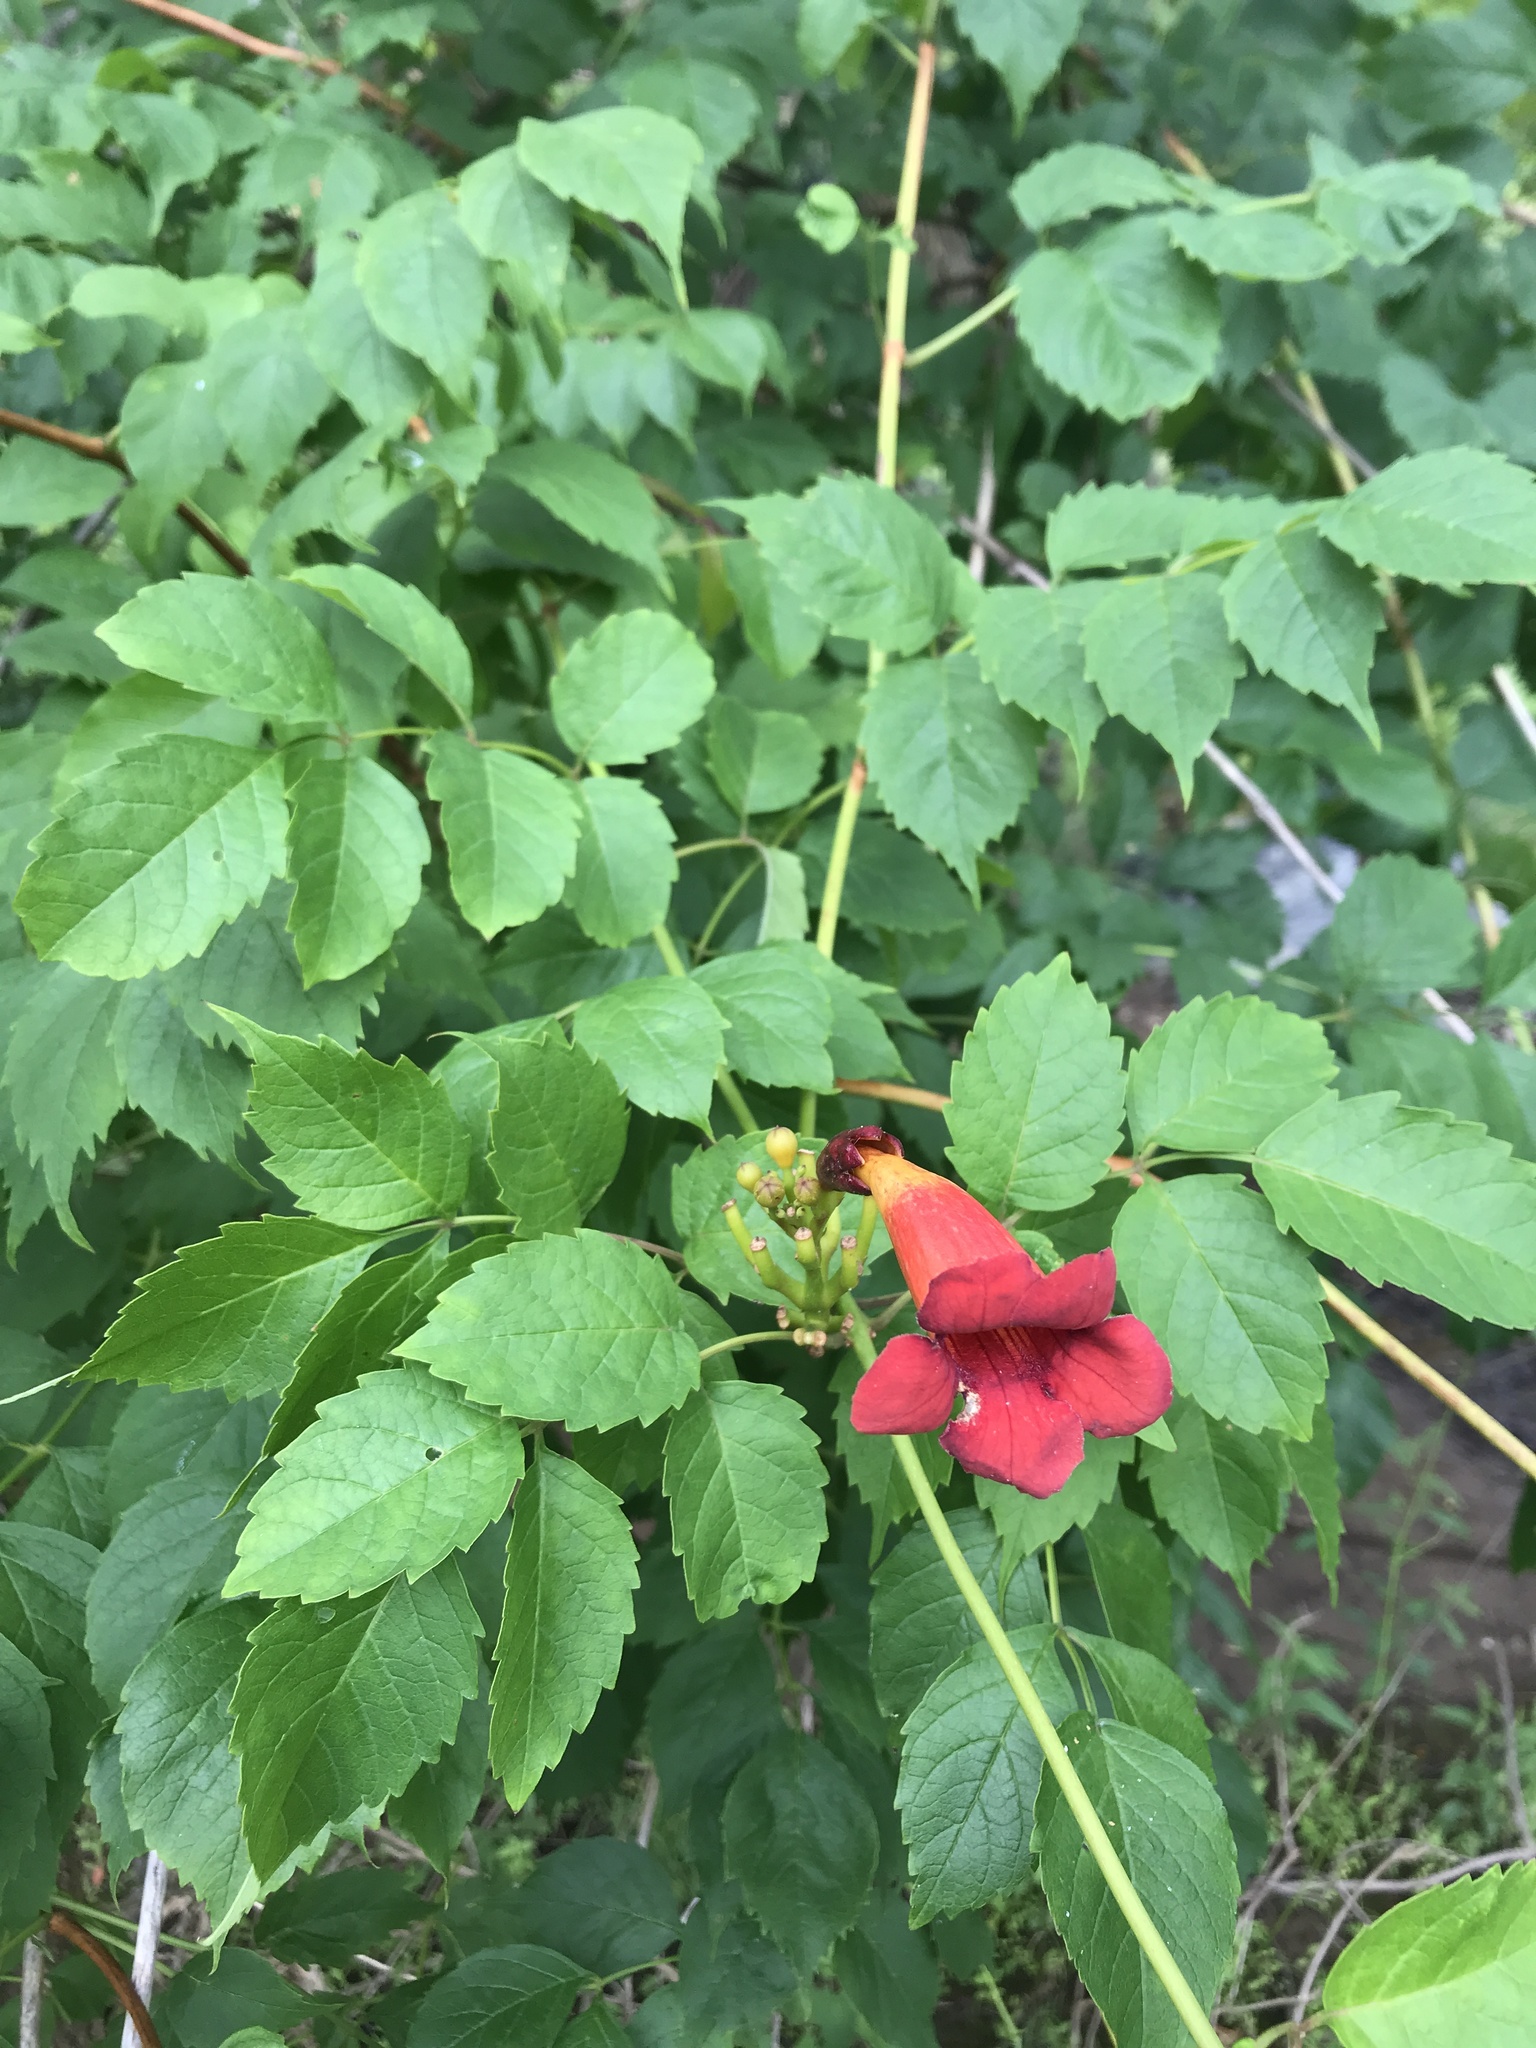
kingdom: Plantae
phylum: Tracheophyta
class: Magnoliopsida
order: Lamiales
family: Bignoniaceae
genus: Campsis
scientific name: Campsis radicans
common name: Trumpet-creeper
